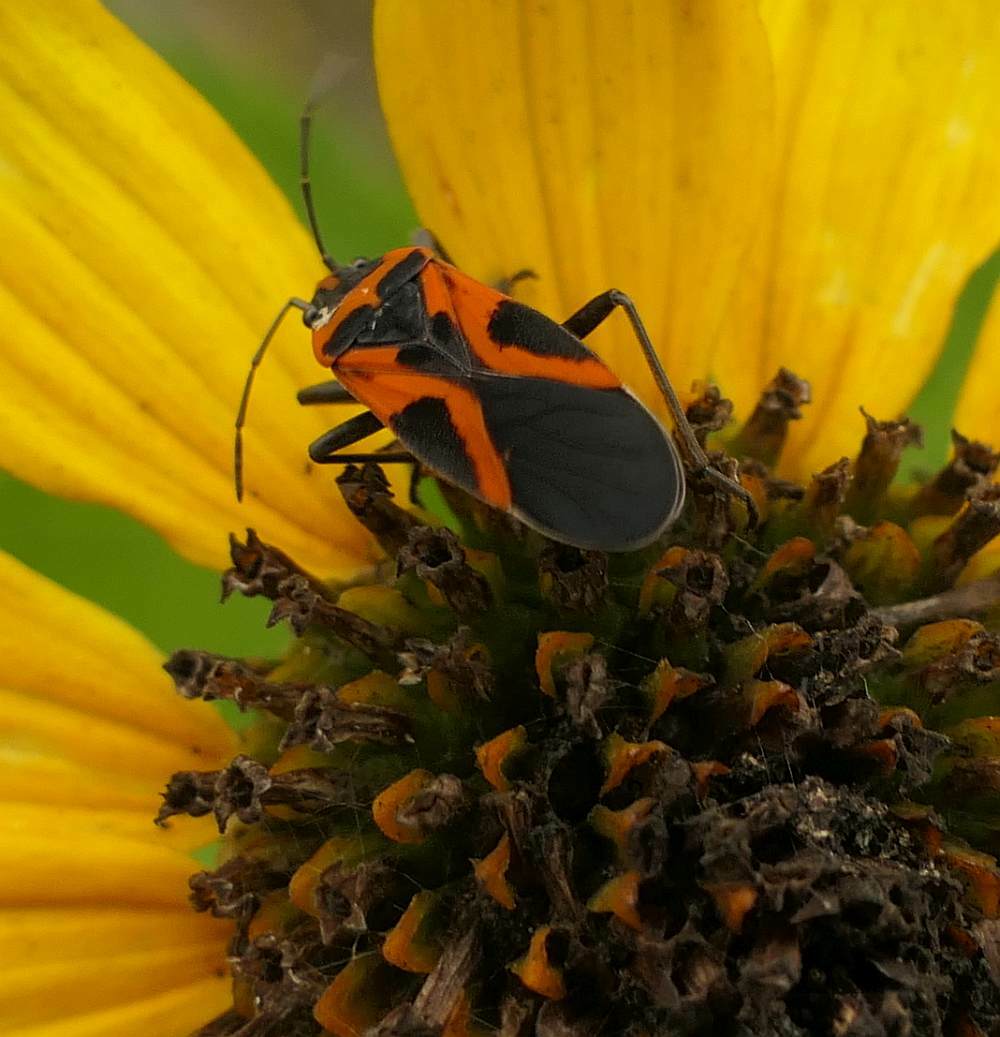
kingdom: Animalia
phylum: Arthropoda
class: Insecta
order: Hemiptera
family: Lygaeidae
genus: Lygaeus
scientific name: Lygaeus turcicus
